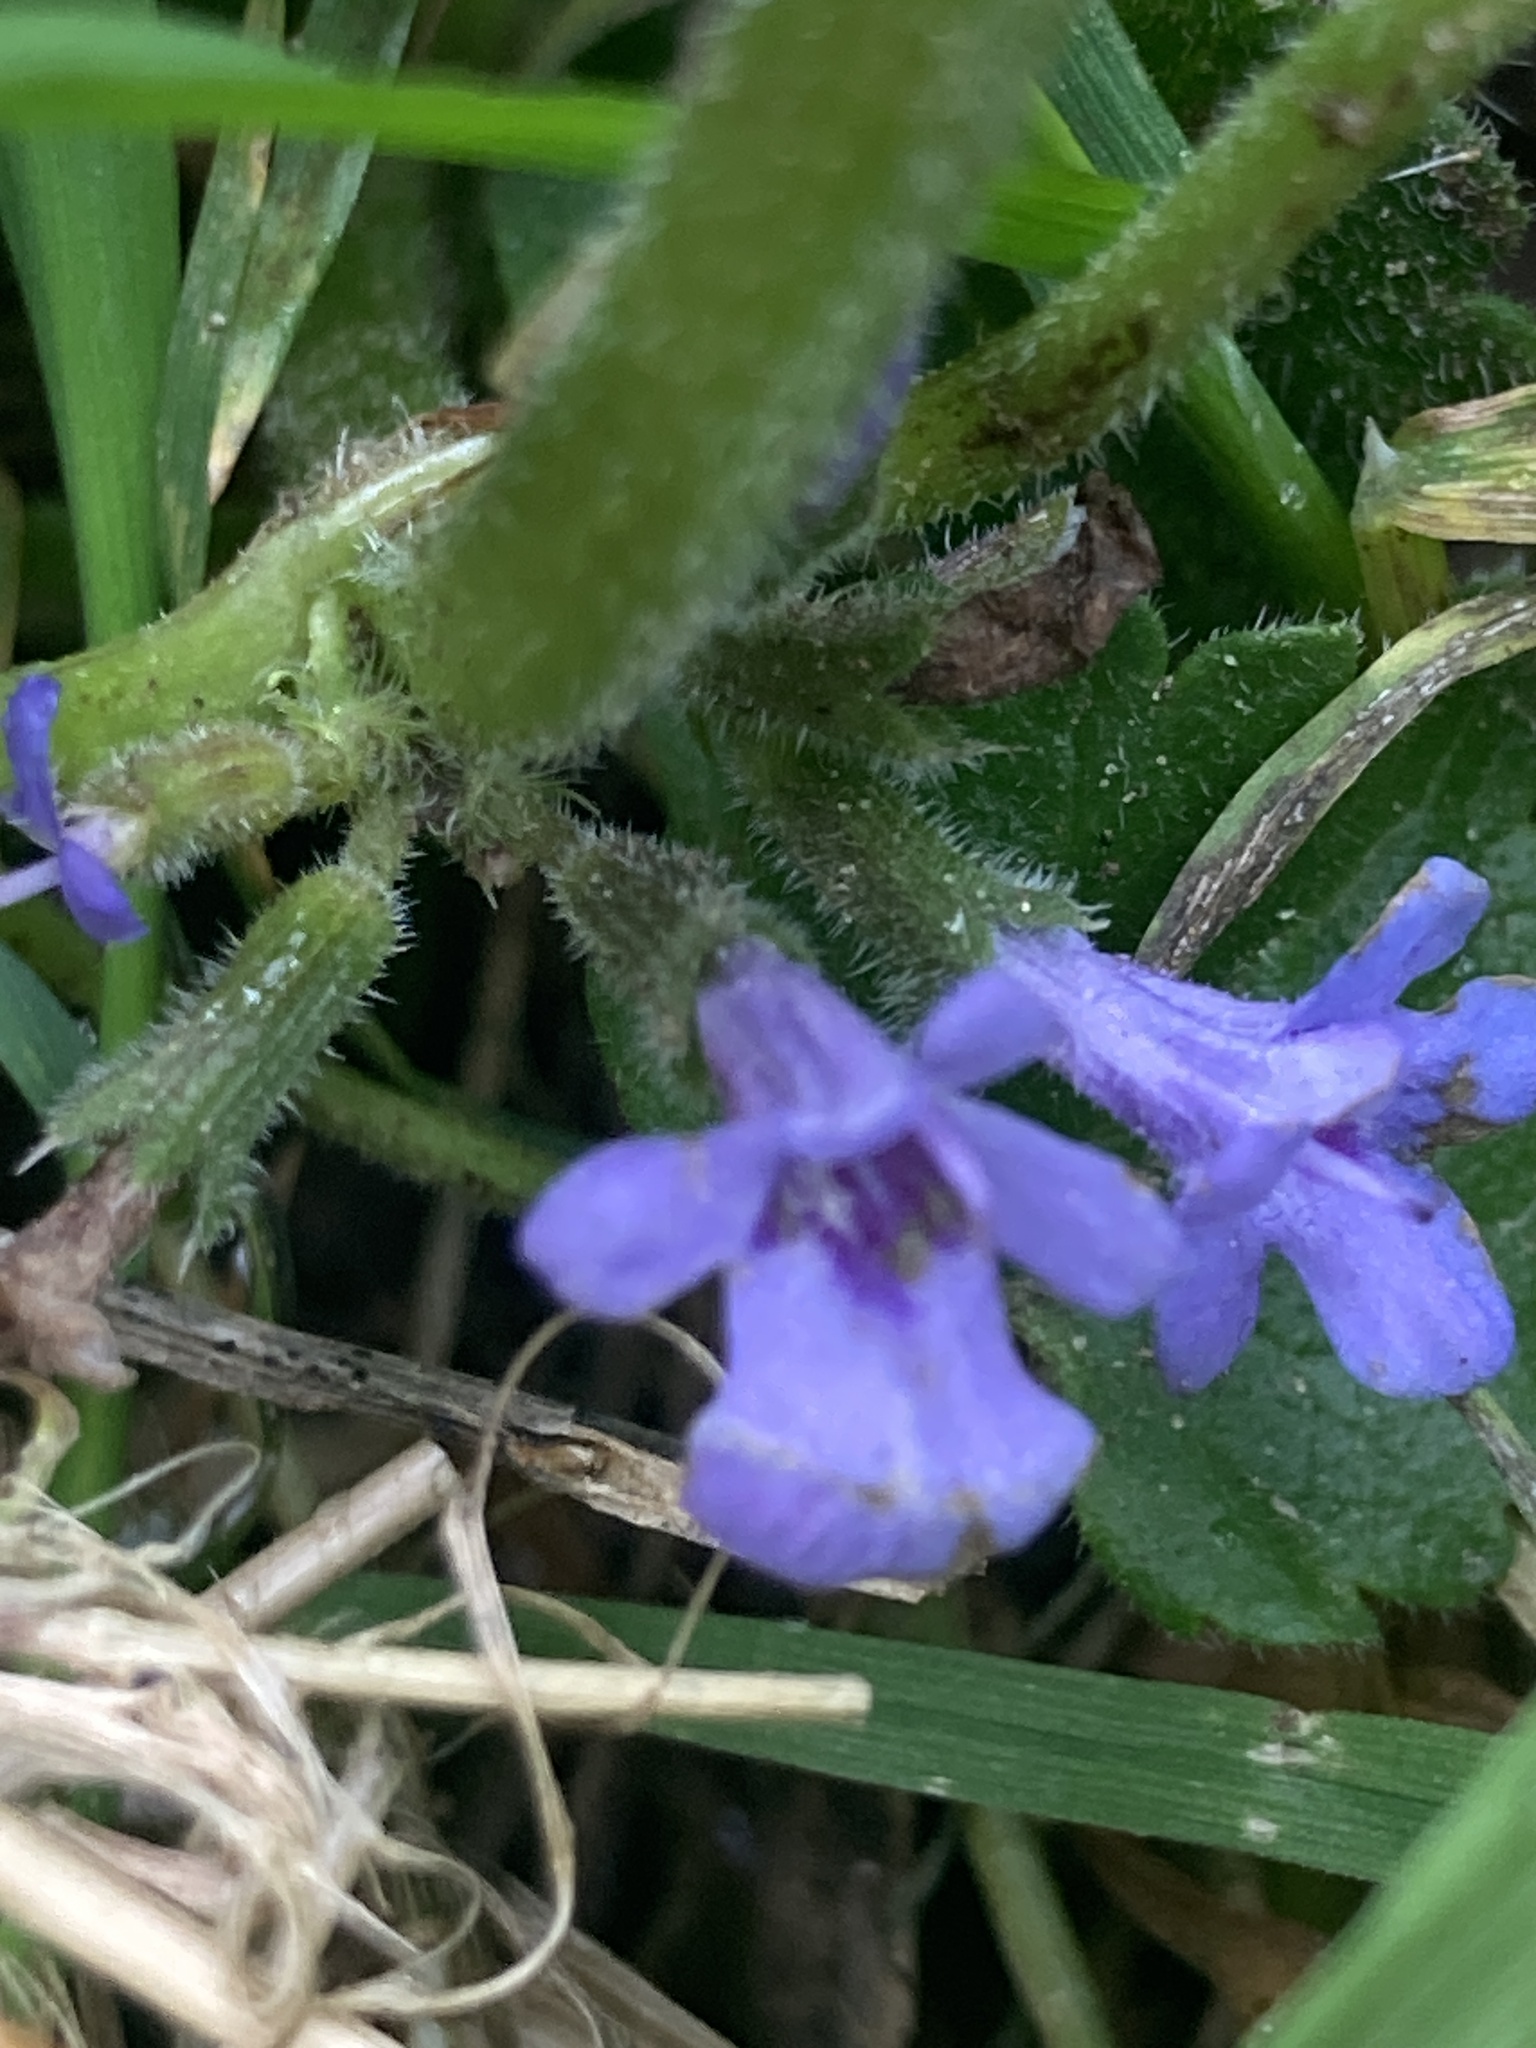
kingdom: Plantae
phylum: Tracheophyta
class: Magnoliopsida
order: Lamiales
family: Lamiaceae
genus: Glechoma
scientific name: Glechoma hederacea
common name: Ground ivy
